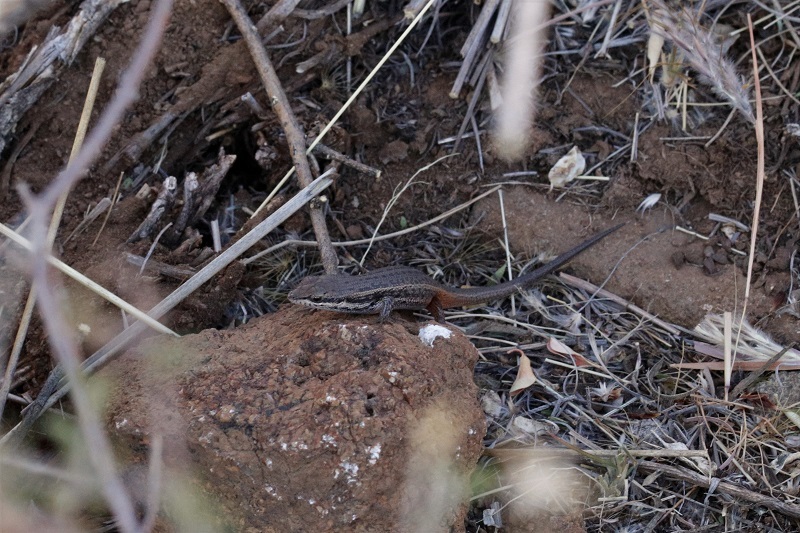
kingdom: Animalia
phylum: Chordata
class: Squamata
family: Scincidae
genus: Trachylepis
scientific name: Trachylepis variegata
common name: Variegated skink
